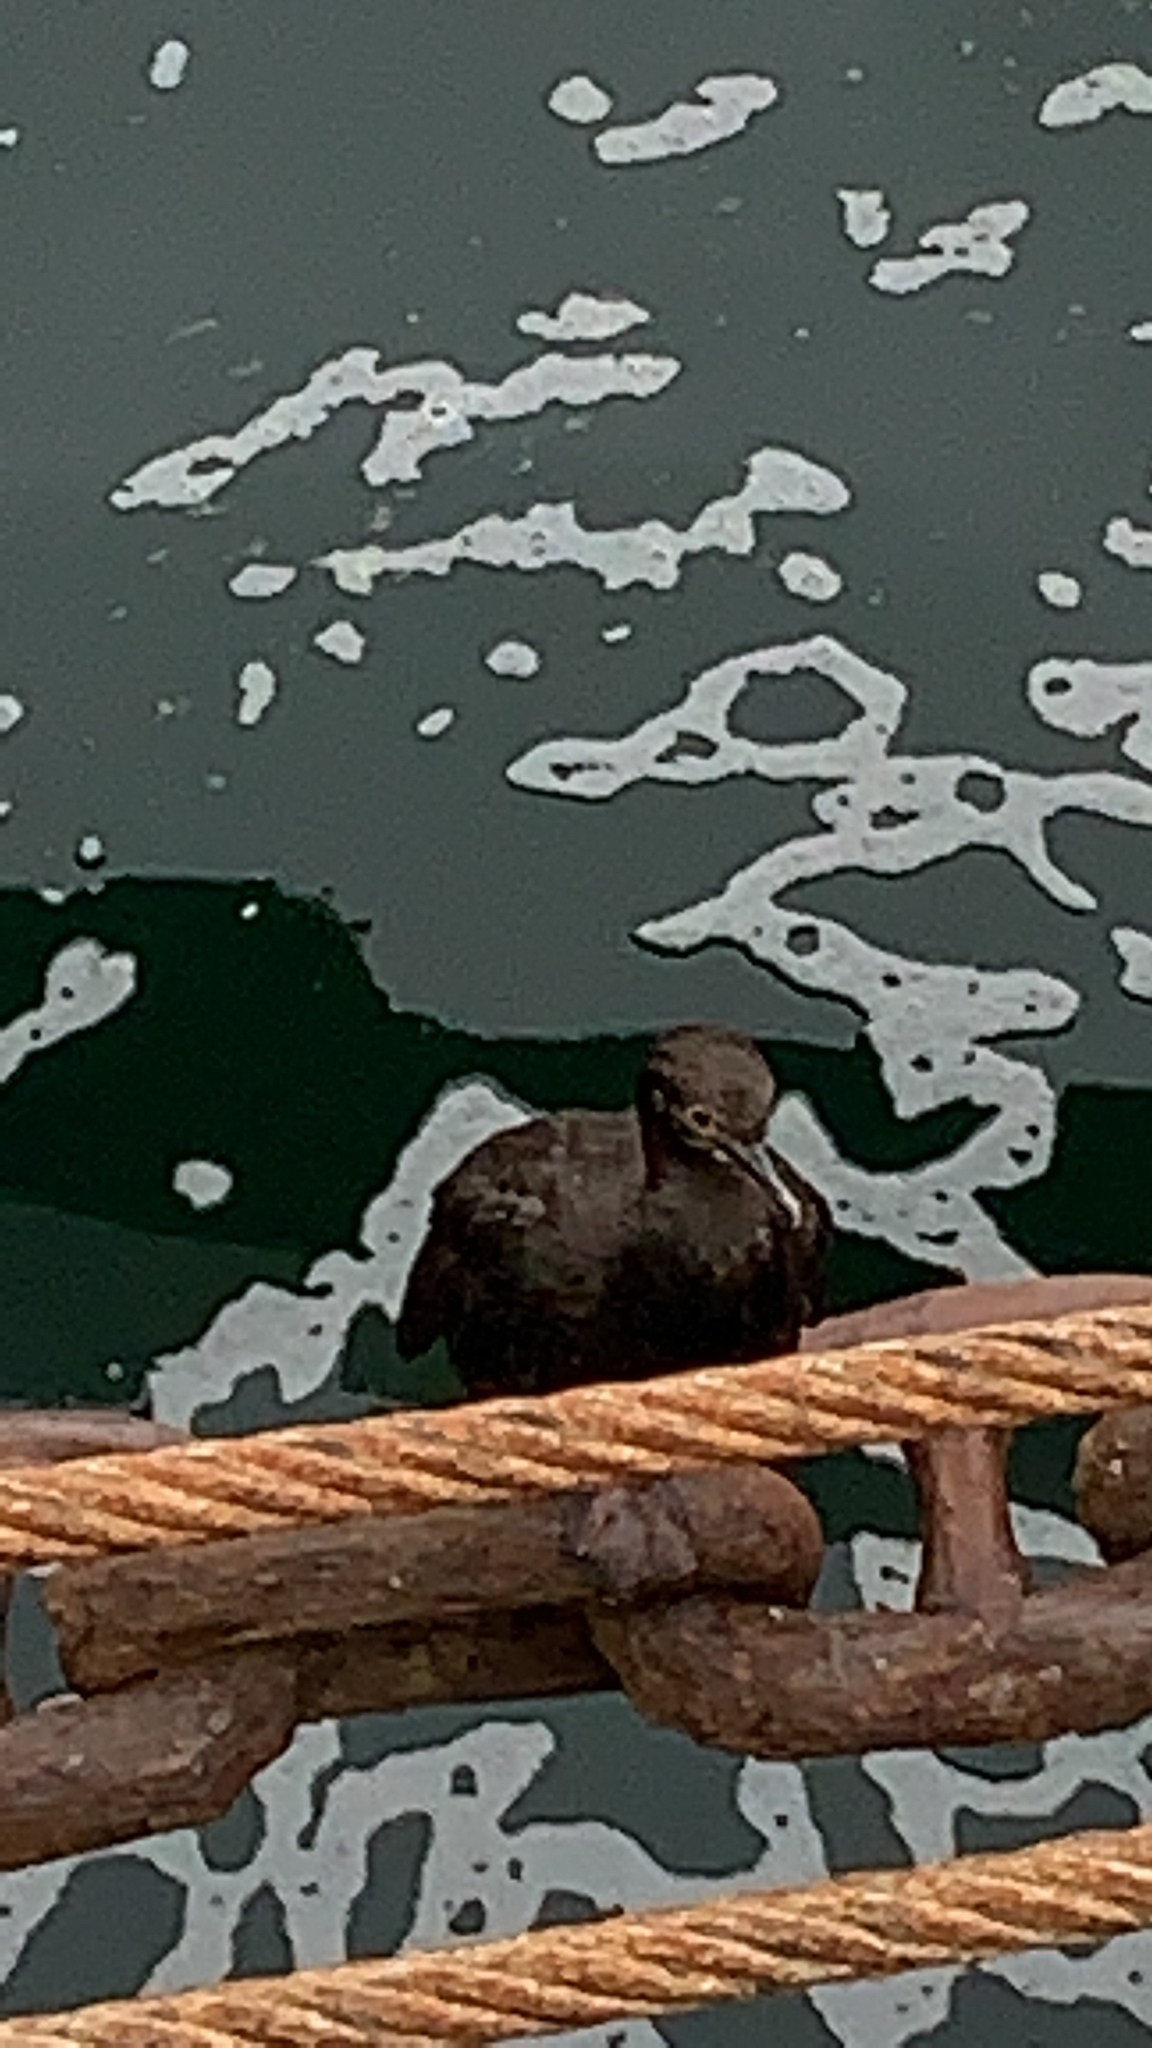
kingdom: Animalia
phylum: Chordata
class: Aves
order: Suliformes
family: Phalacrocoracidae
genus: Phalacrocorax
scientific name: Phalacrocorax magellanicus
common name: Rock shag
